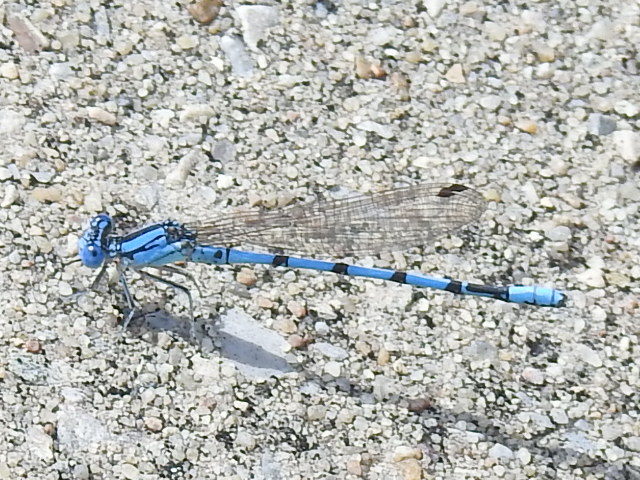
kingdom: Animalia
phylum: Arthropoda
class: Insecta
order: Odonata
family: Coenagrionidae
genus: Argia
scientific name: Argia nahuana
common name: Aztec dancer
